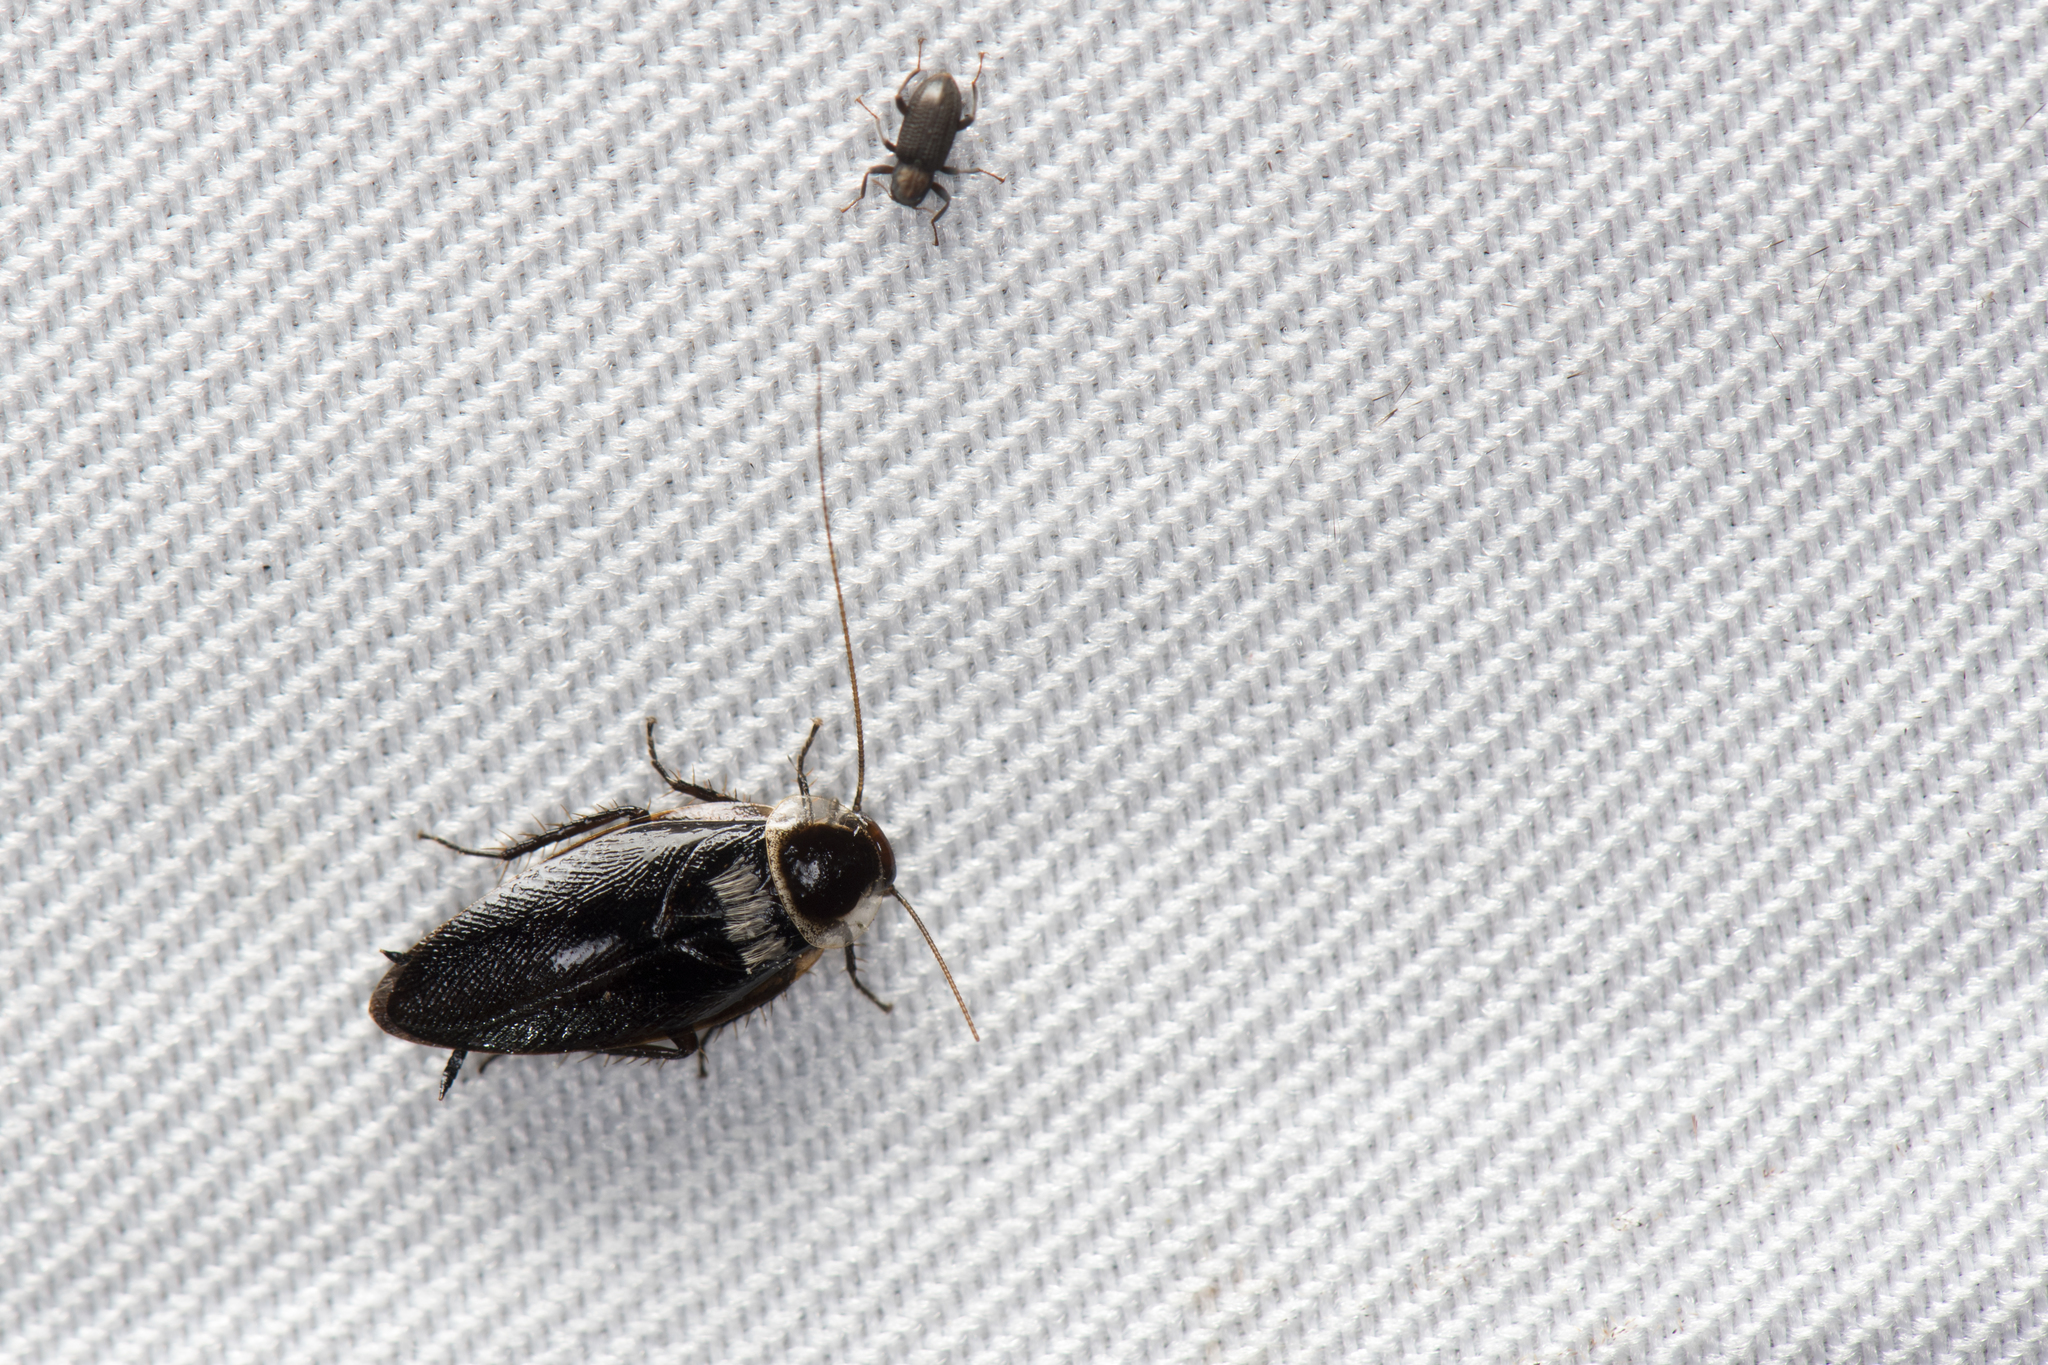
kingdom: Animalia
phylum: Arthropoda
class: Insecta
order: Blattodea
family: Ectobiidae
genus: Sorineuchora
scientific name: Sorineuchora nigra
